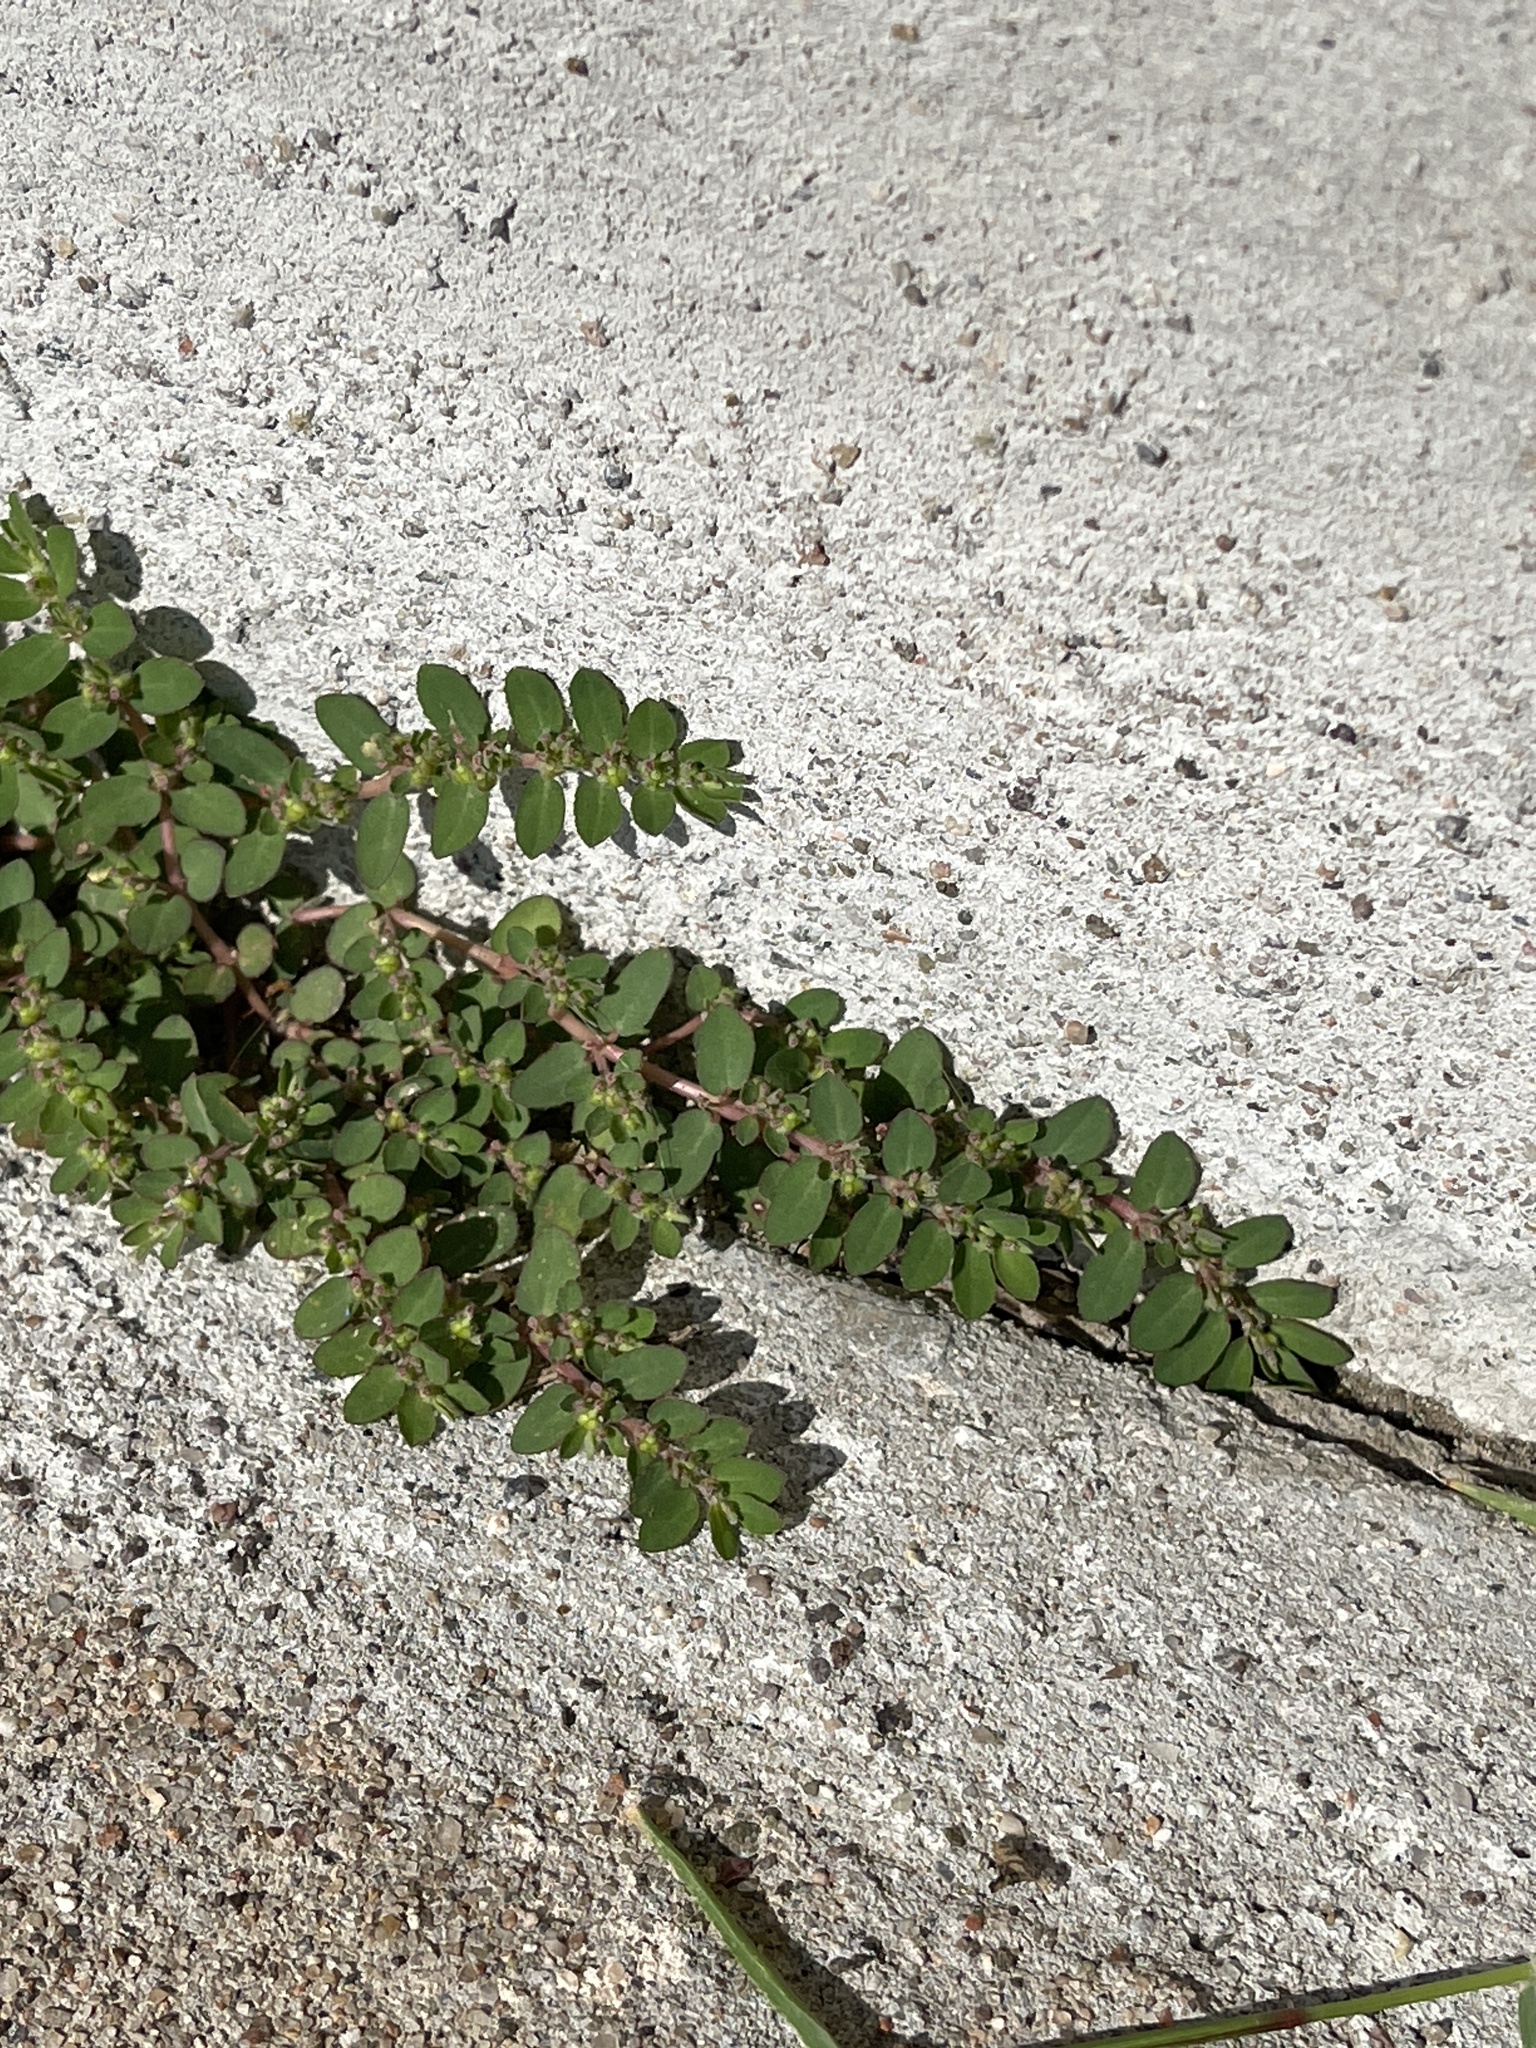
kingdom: Plantae
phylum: Tracheophyta
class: Magnoliopsida
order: Malpighiales
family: Euphorbiaceae
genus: Euphorbia
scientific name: Euphorbia prostrata
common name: Prostrate sandmat
